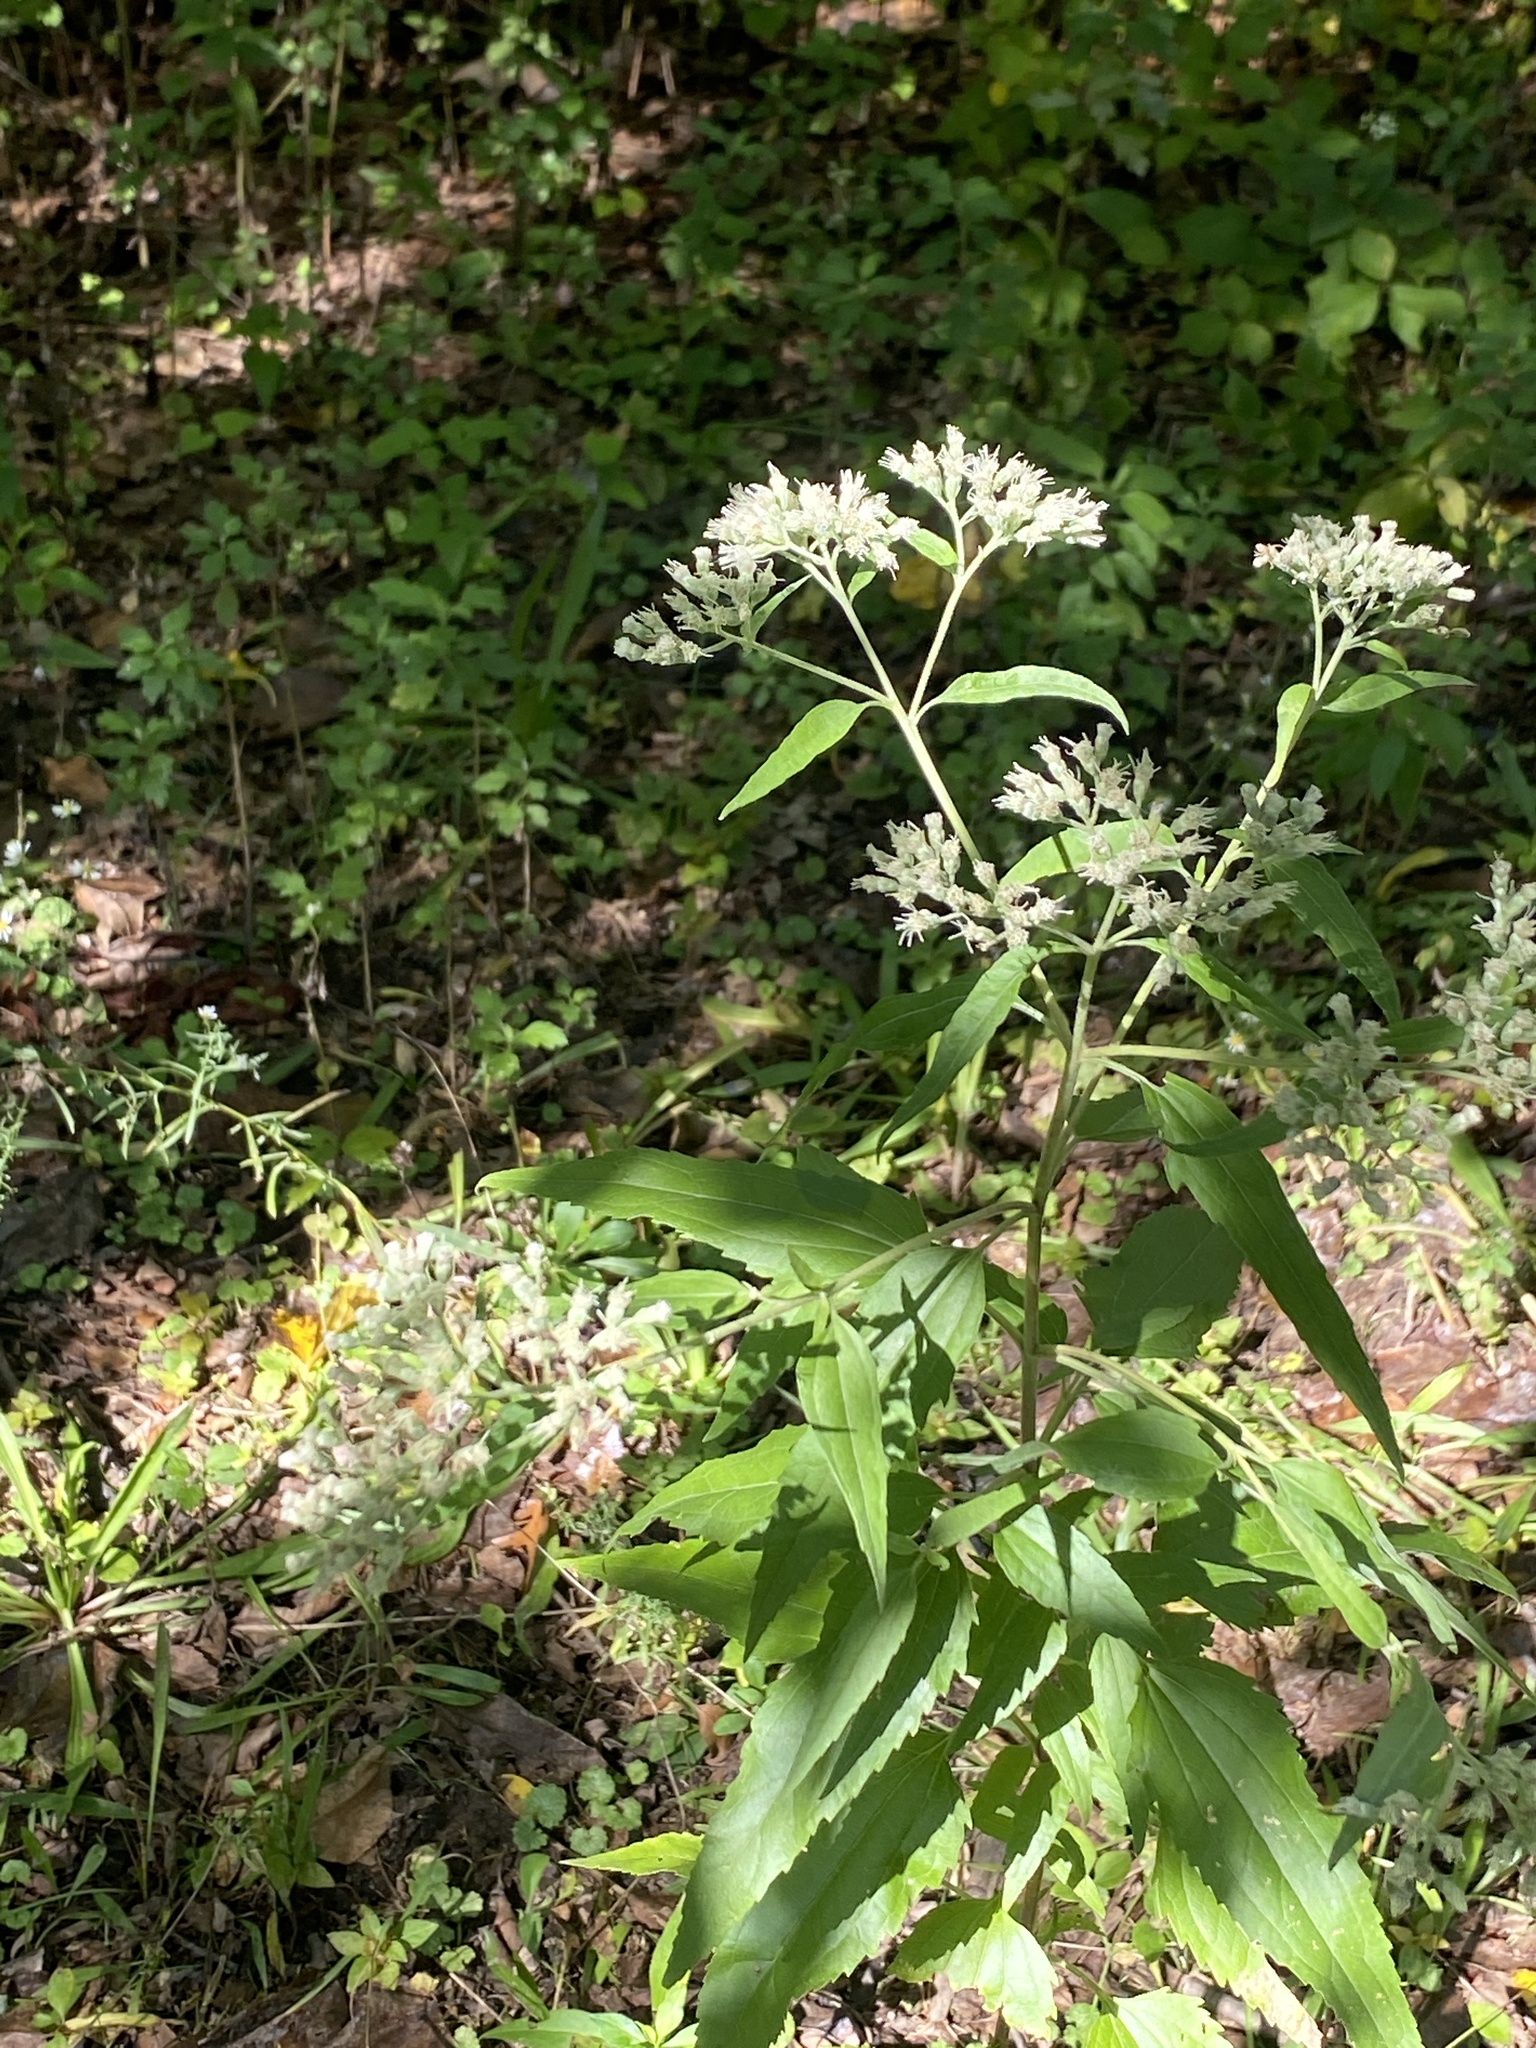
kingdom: Plantae
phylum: Tracheophyta
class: Magnoliopsida
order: Asterales
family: Asteraceae
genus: Eupatorium
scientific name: Eupatorium serotinum
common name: Late boneset
